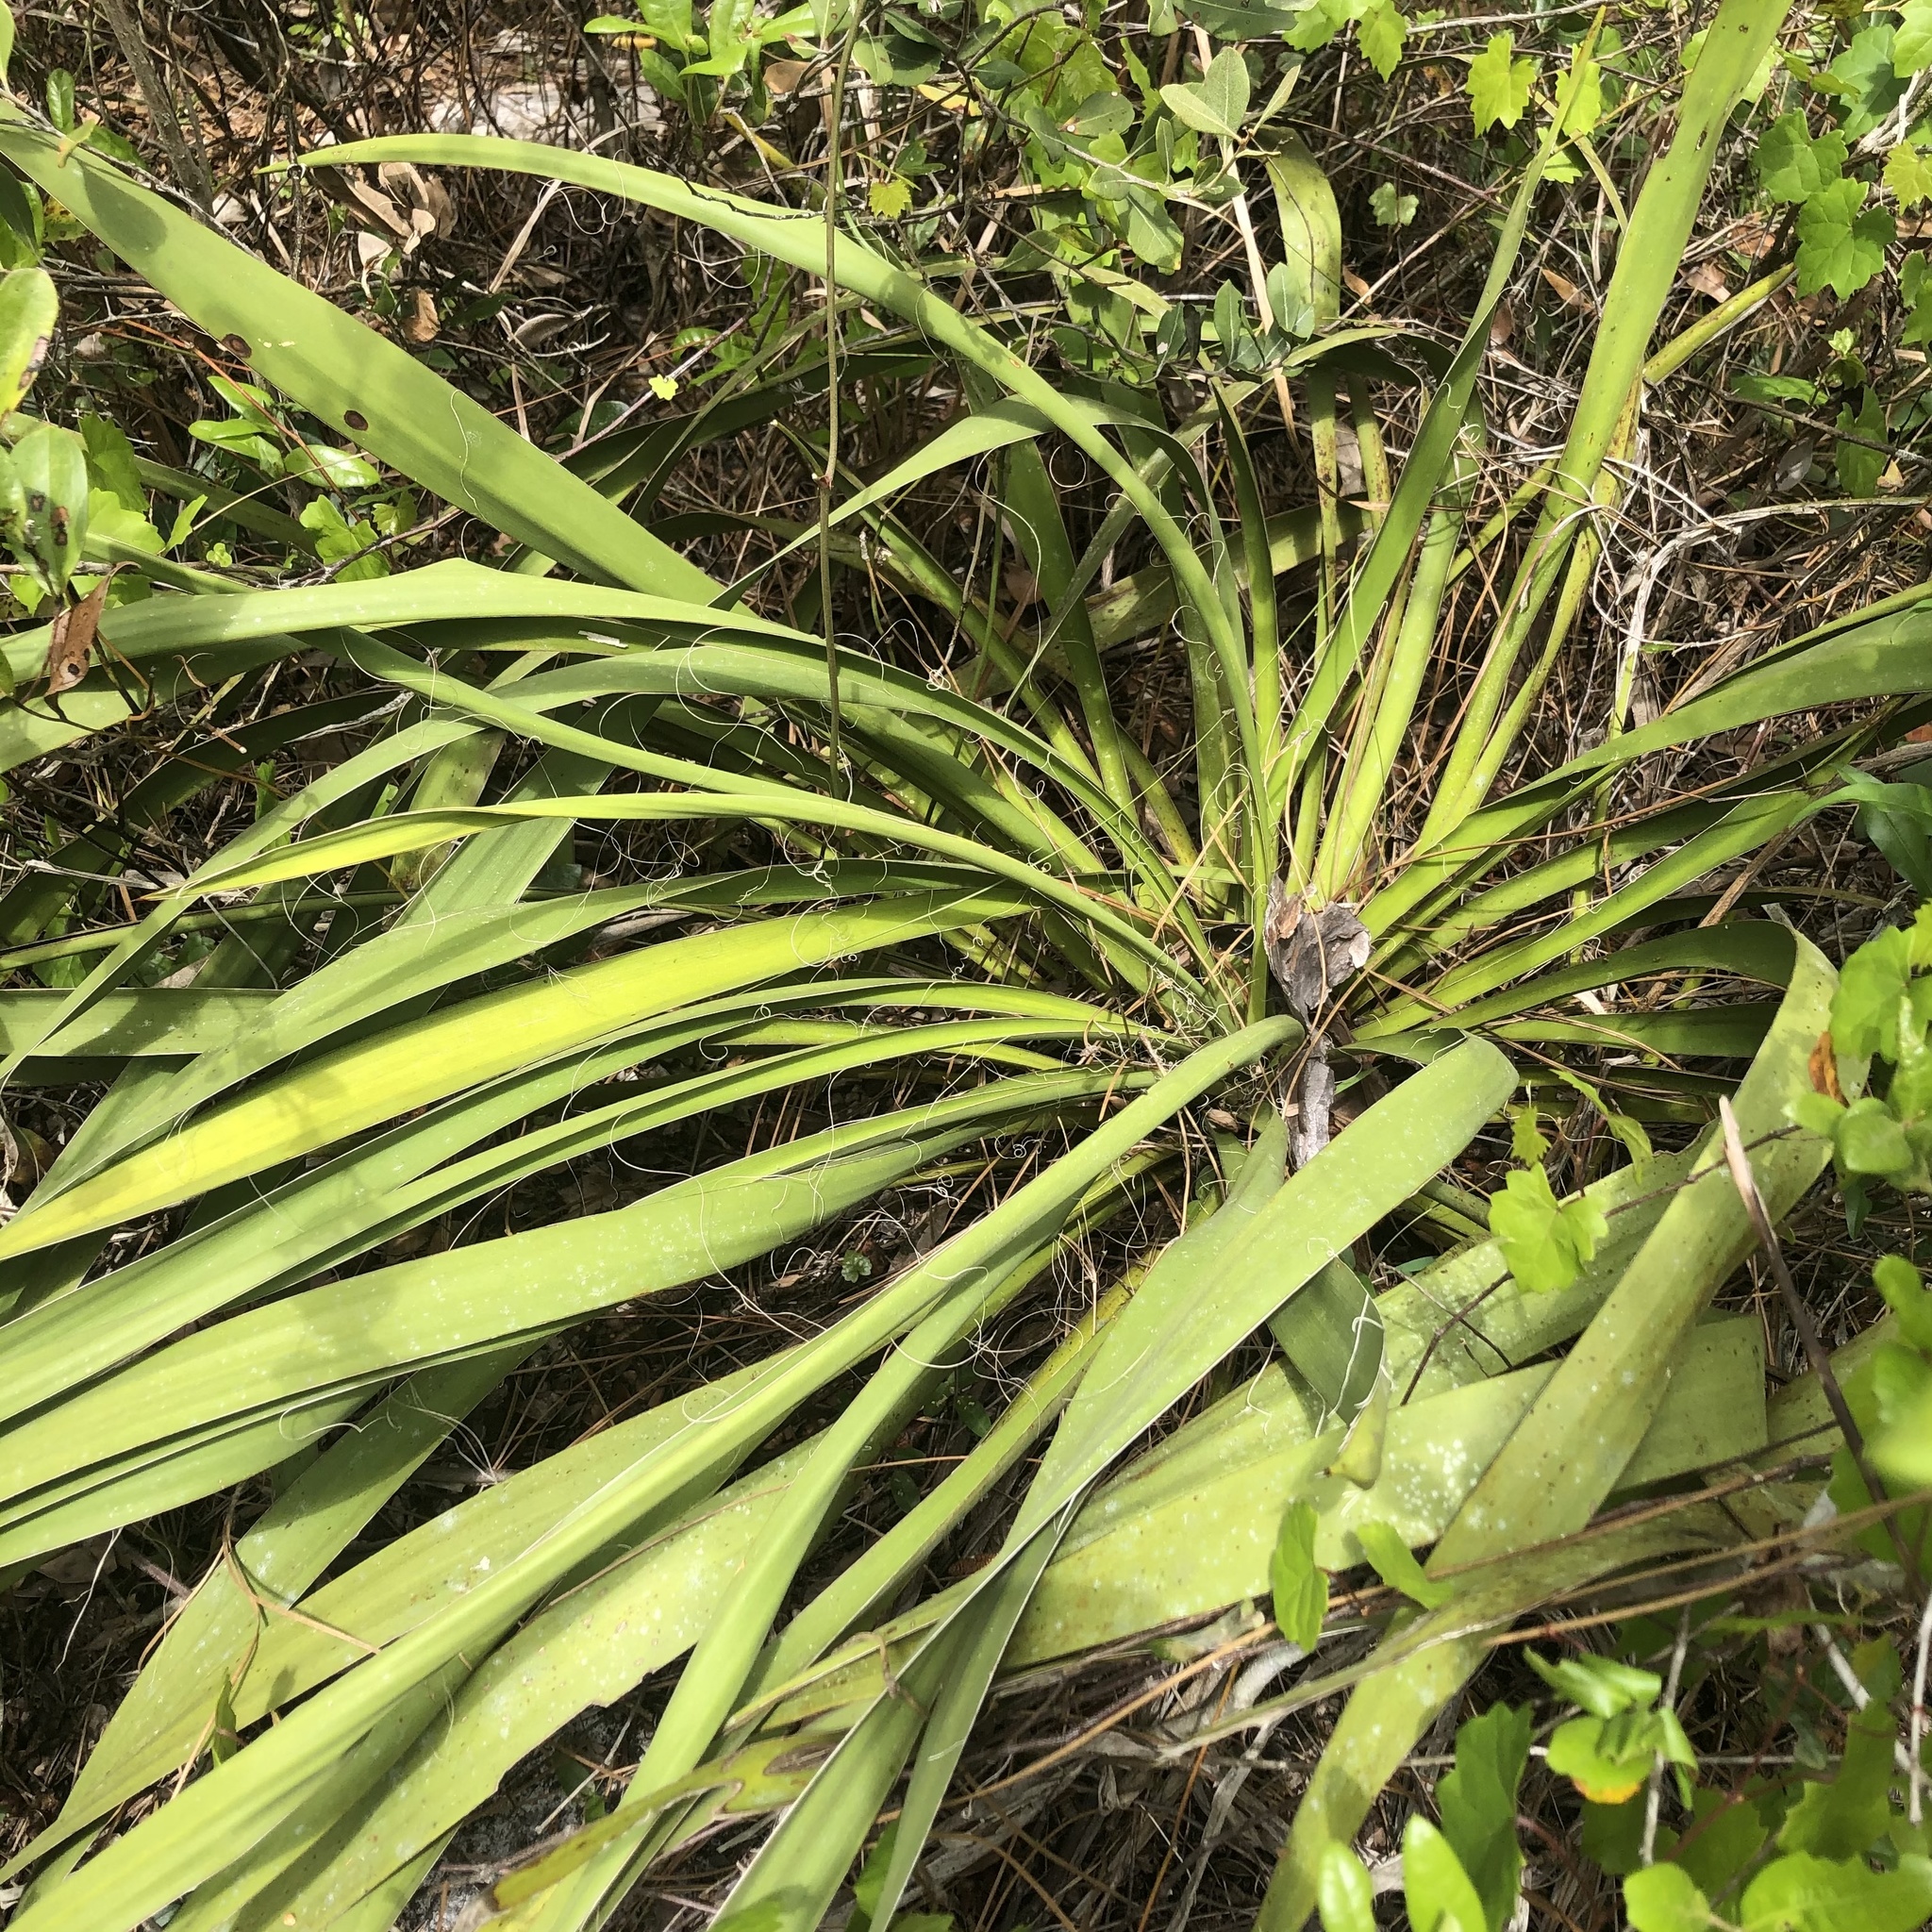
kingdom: Plantae
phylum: Tracheophyta
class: Liliopsida
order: Asparagales
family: Asparagaceae
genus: Yucca
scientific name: Yucca filamentosa
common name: Adam's-needle
